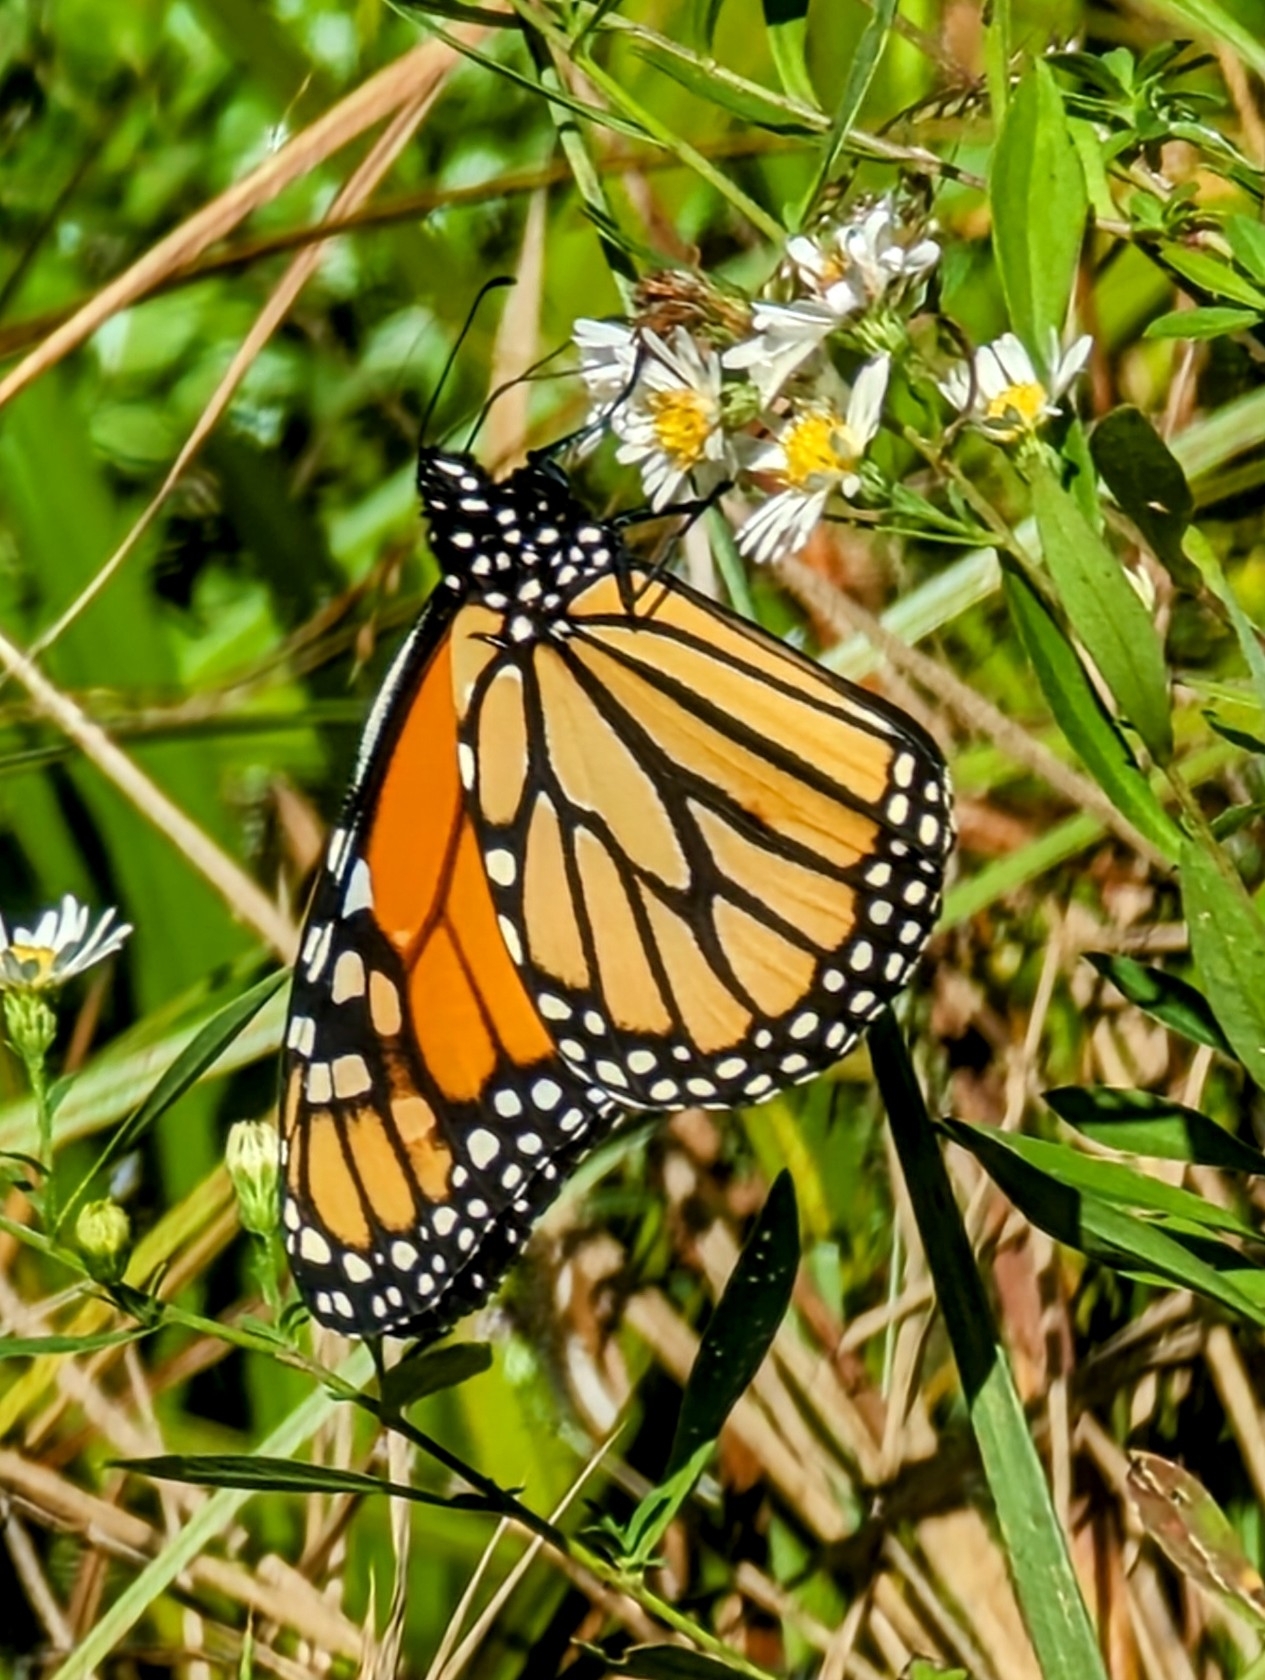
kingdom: Animalia
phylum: Arthropoda
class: Insecta
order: Lepidoptera
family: Nymphalidae
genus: Danaus
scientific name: Danaus plexippus
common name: Monarch
